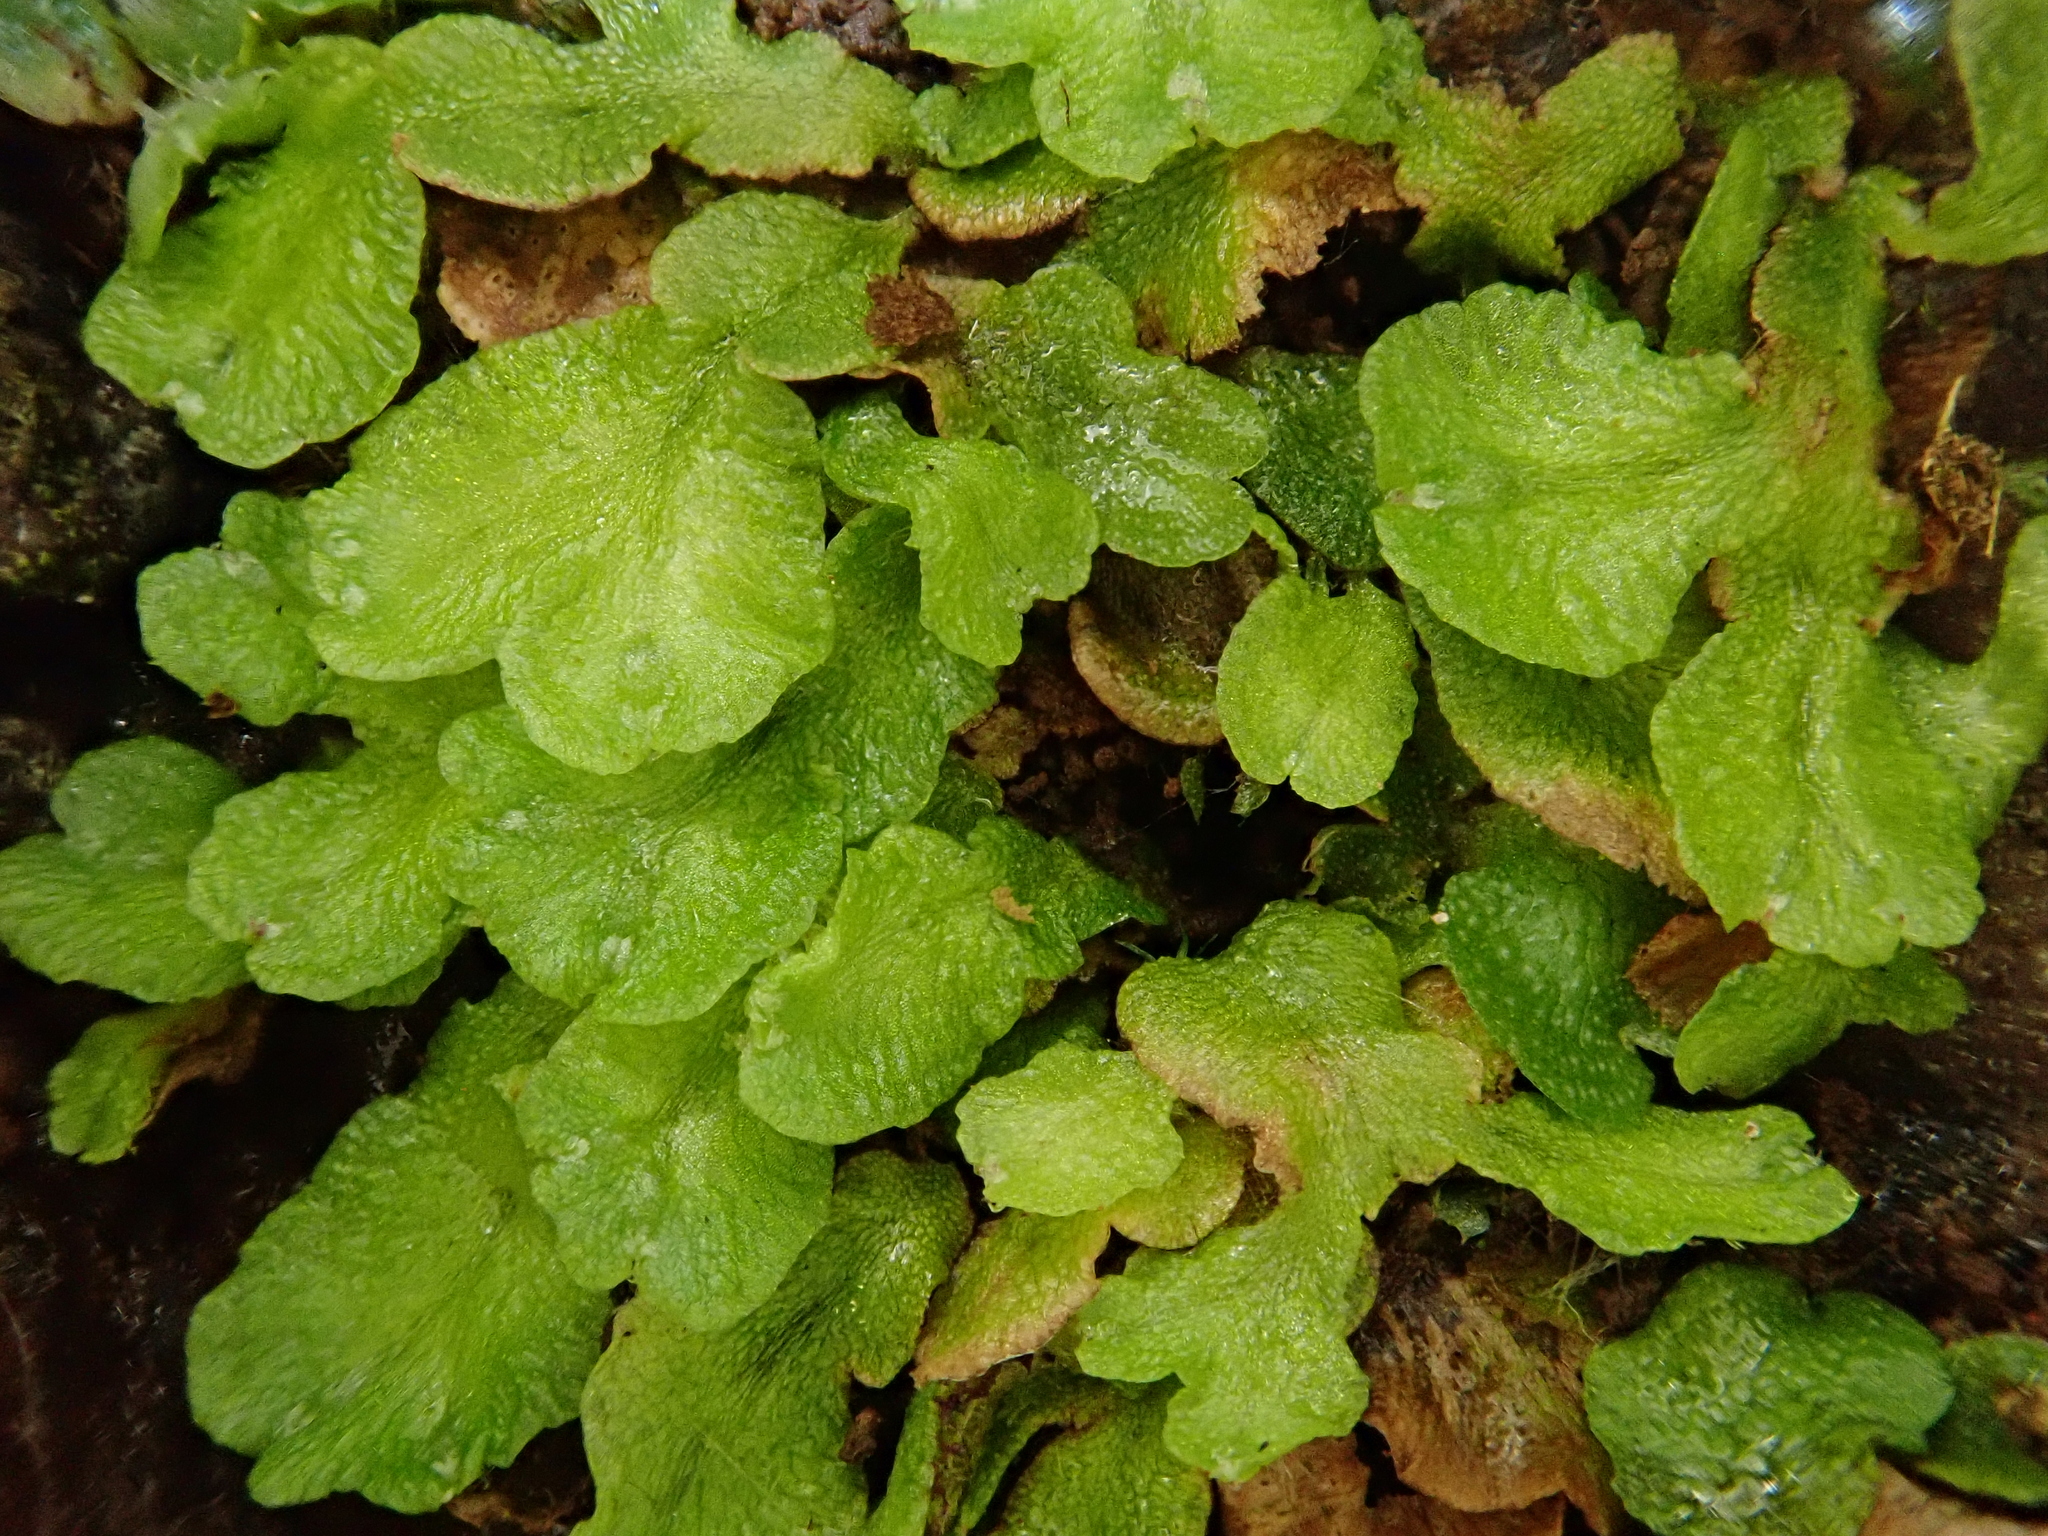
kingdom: Plantae
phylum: Marchantiophyta
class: Marchantiopsida
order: Marchantiales
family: Aytoniaceae
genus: Asterella
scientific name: Asterella africana
